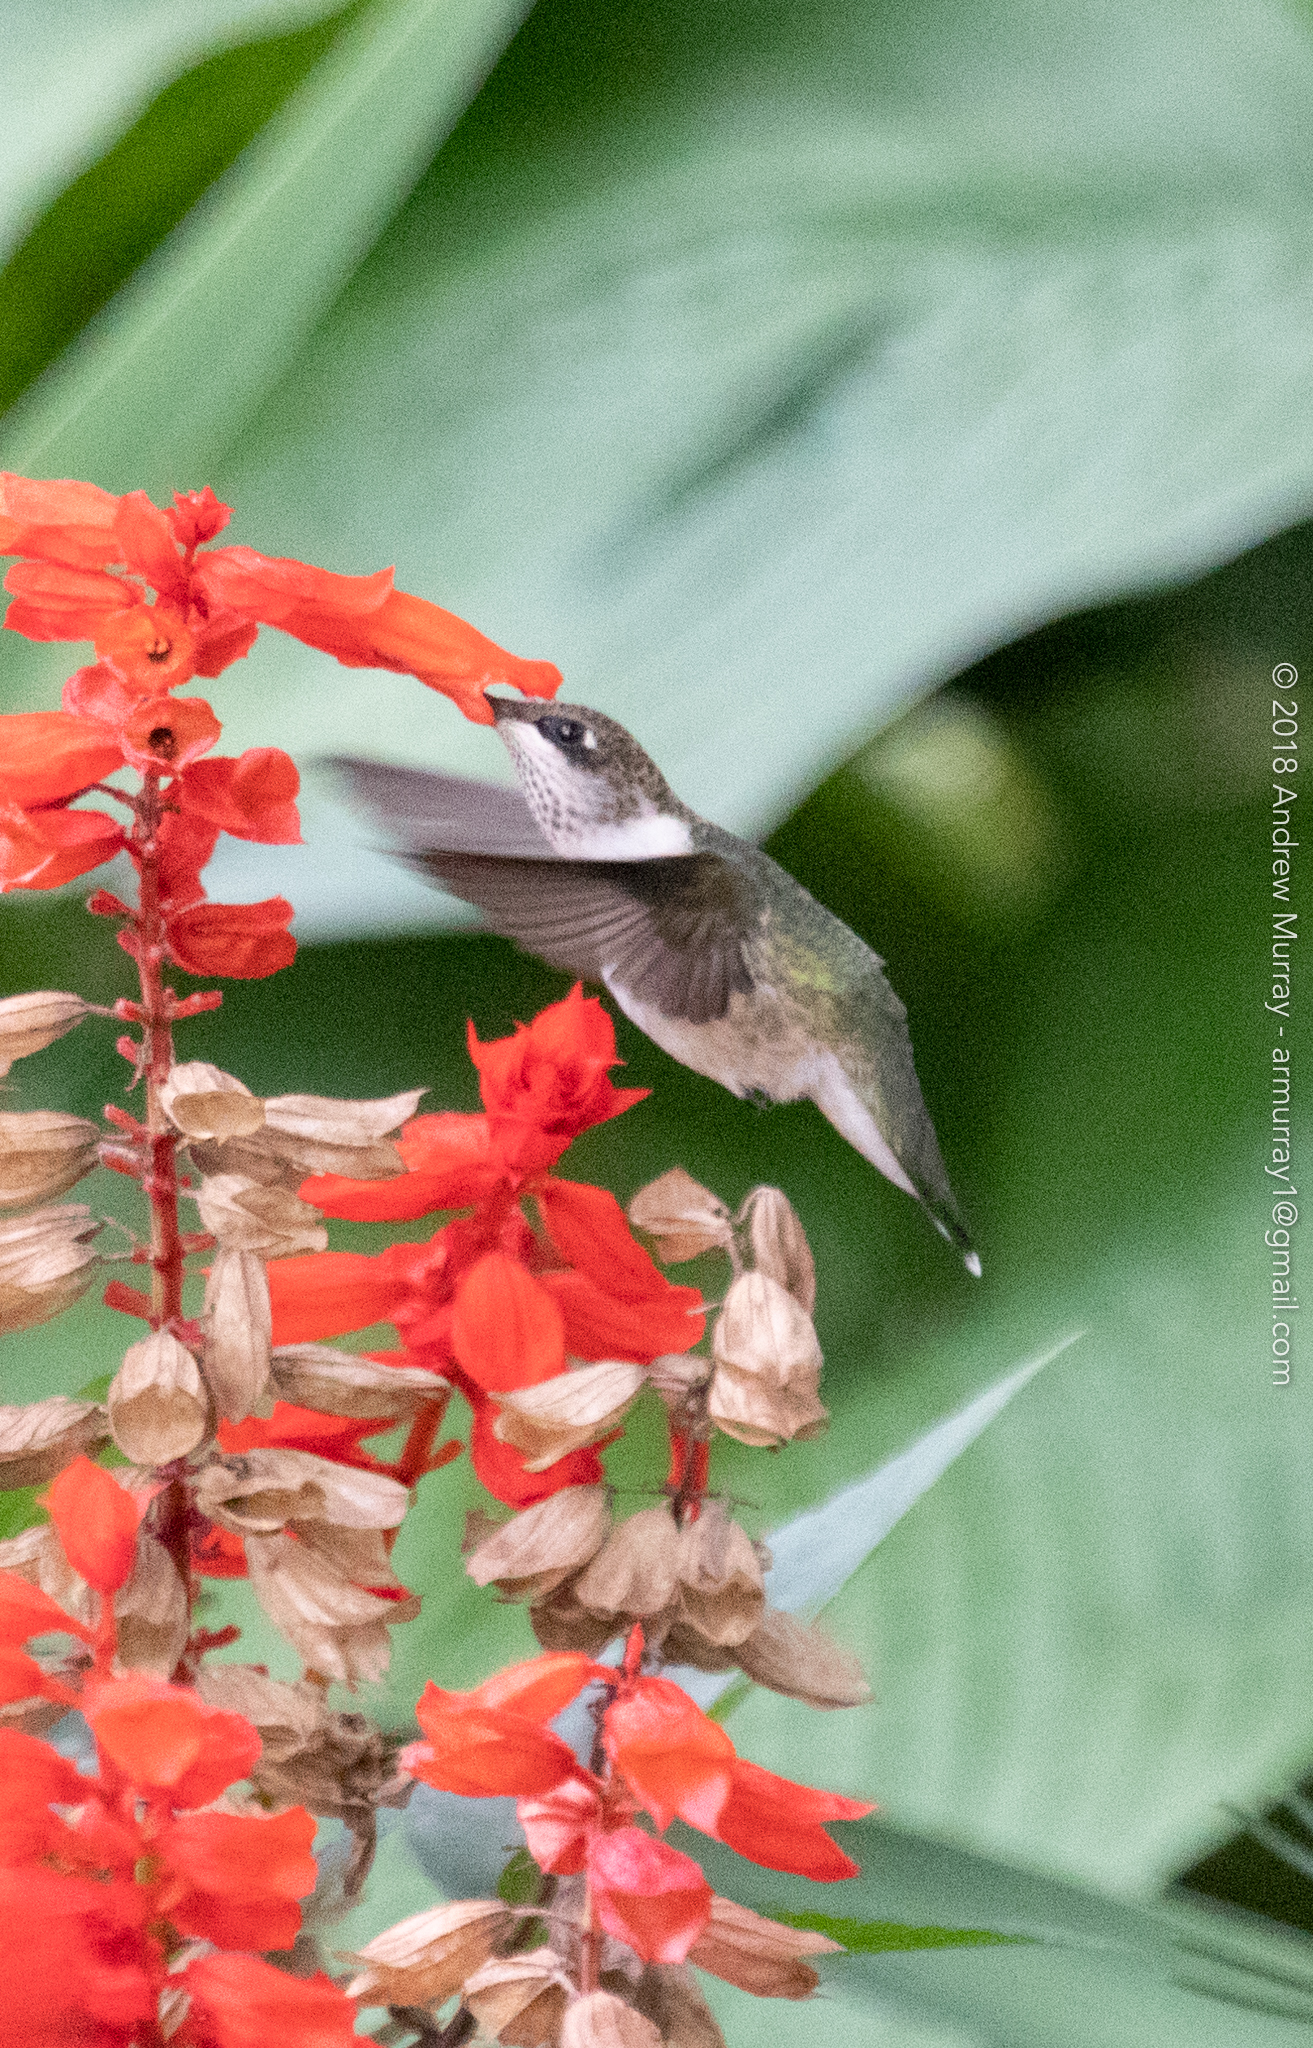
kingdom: Animalia
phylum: Chordata
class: Aves
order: Apodiformes
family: Trochilidae
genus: Archilochus
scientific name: Archilochus colubris
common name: Ruby-throated hummingbird
